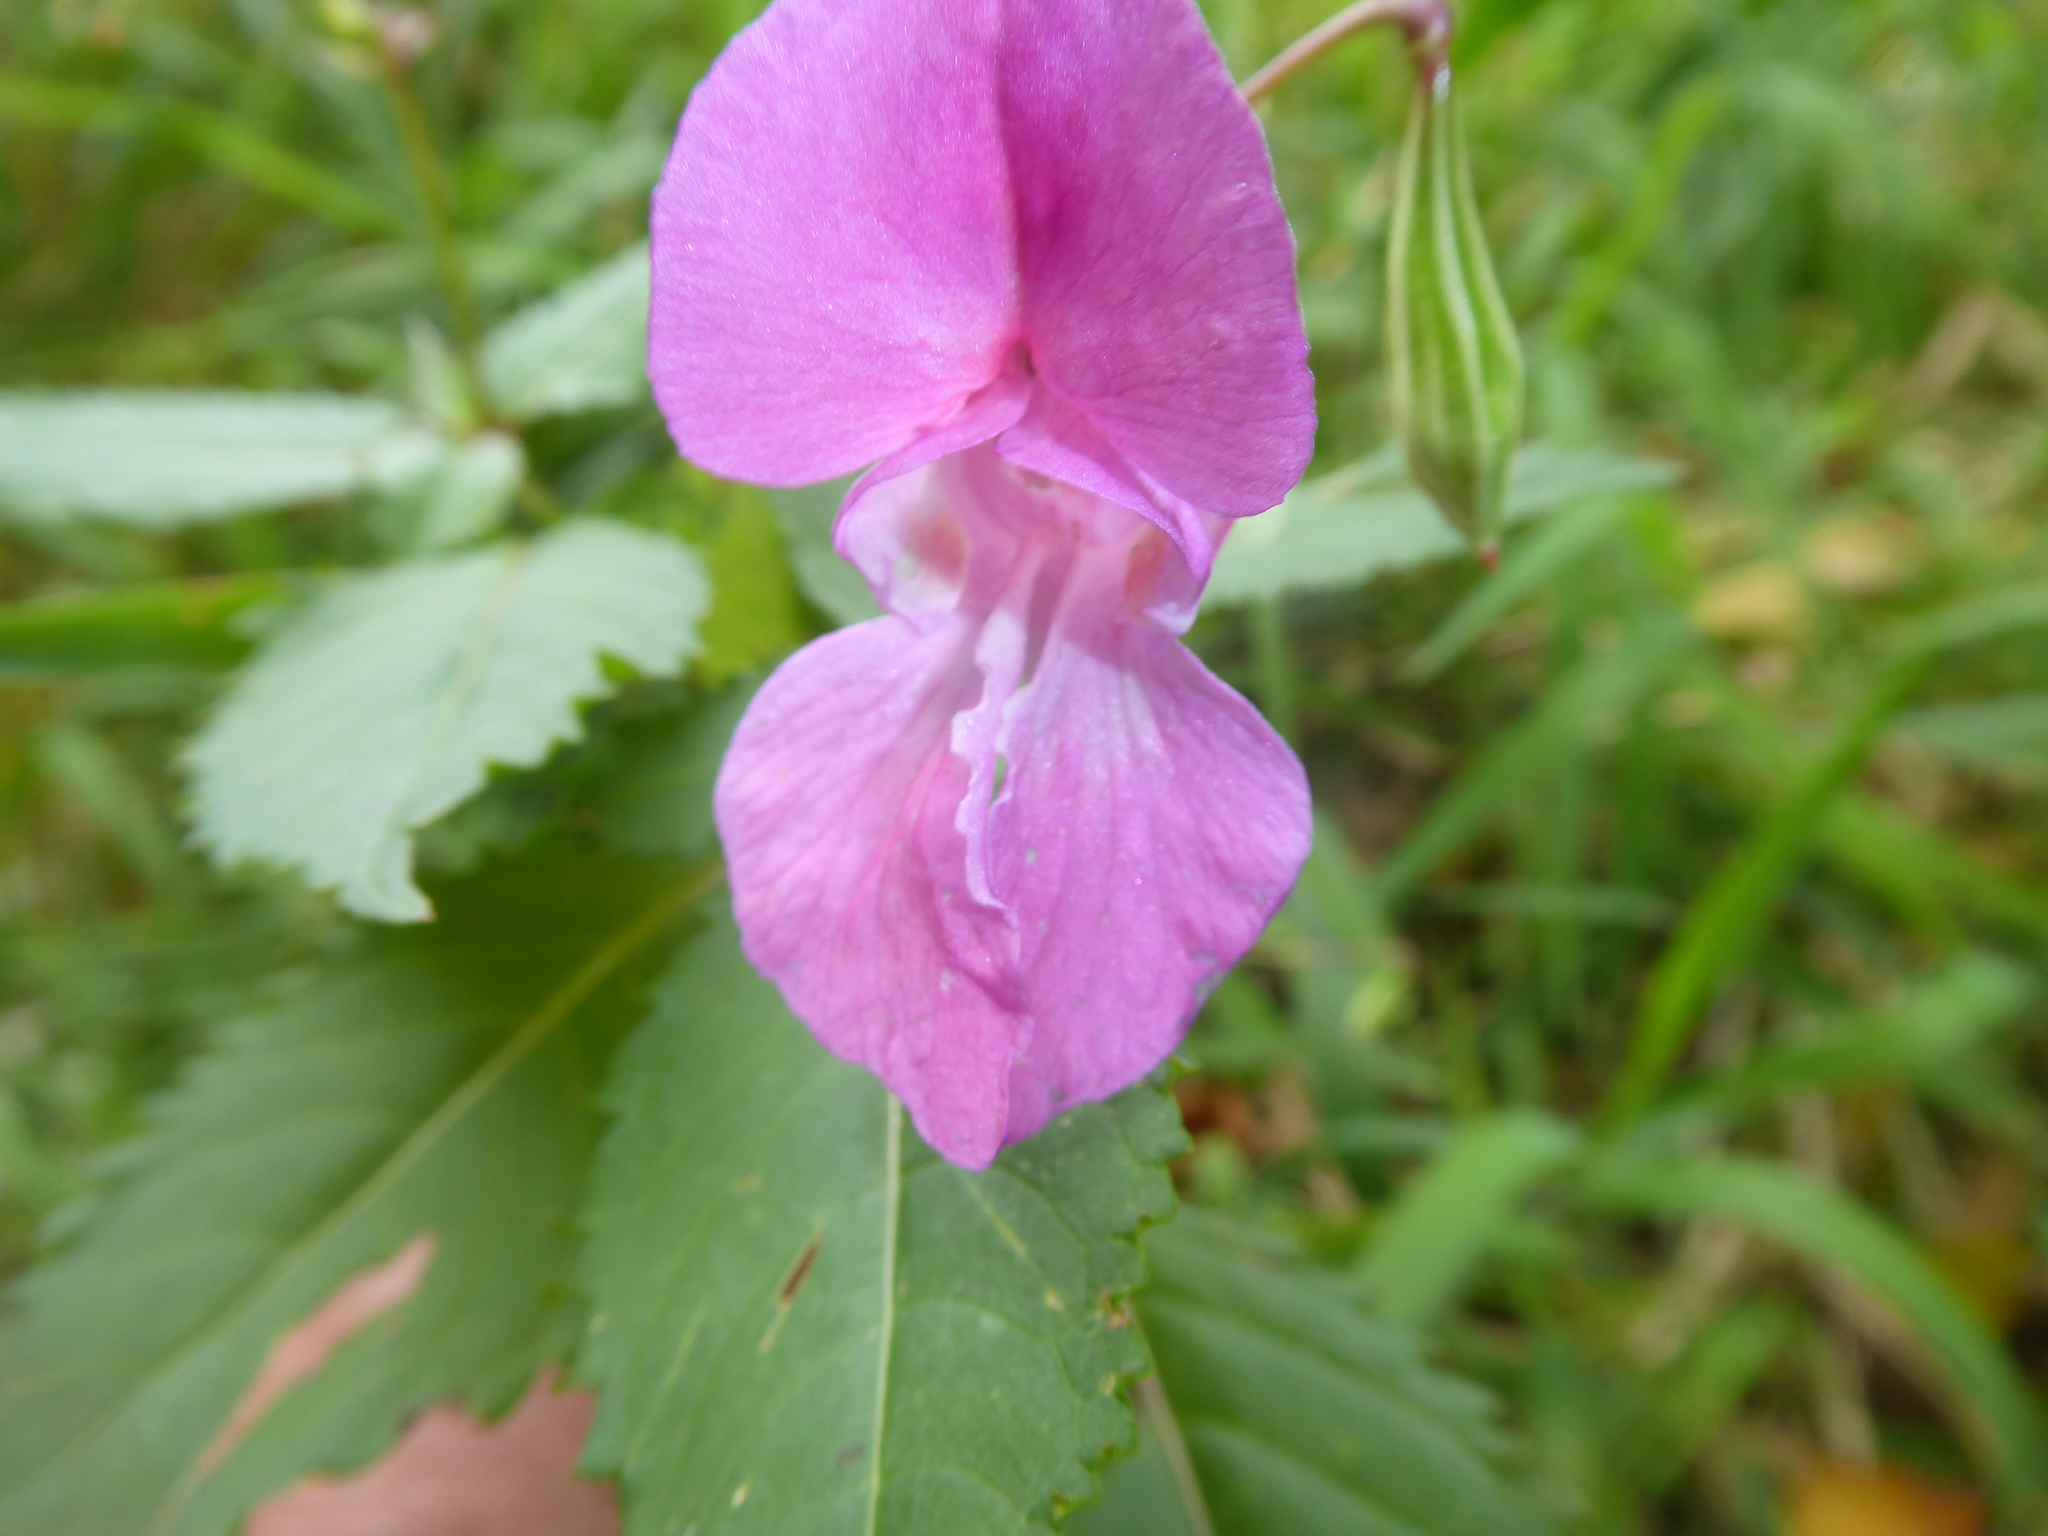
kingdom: Plantae
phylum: Tracheophyta
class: Magnoliopsida
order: Ericales
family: Balsaminaceae
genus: Impatiens
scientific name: Impatiens glandulifera
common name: Himalayan balsam
